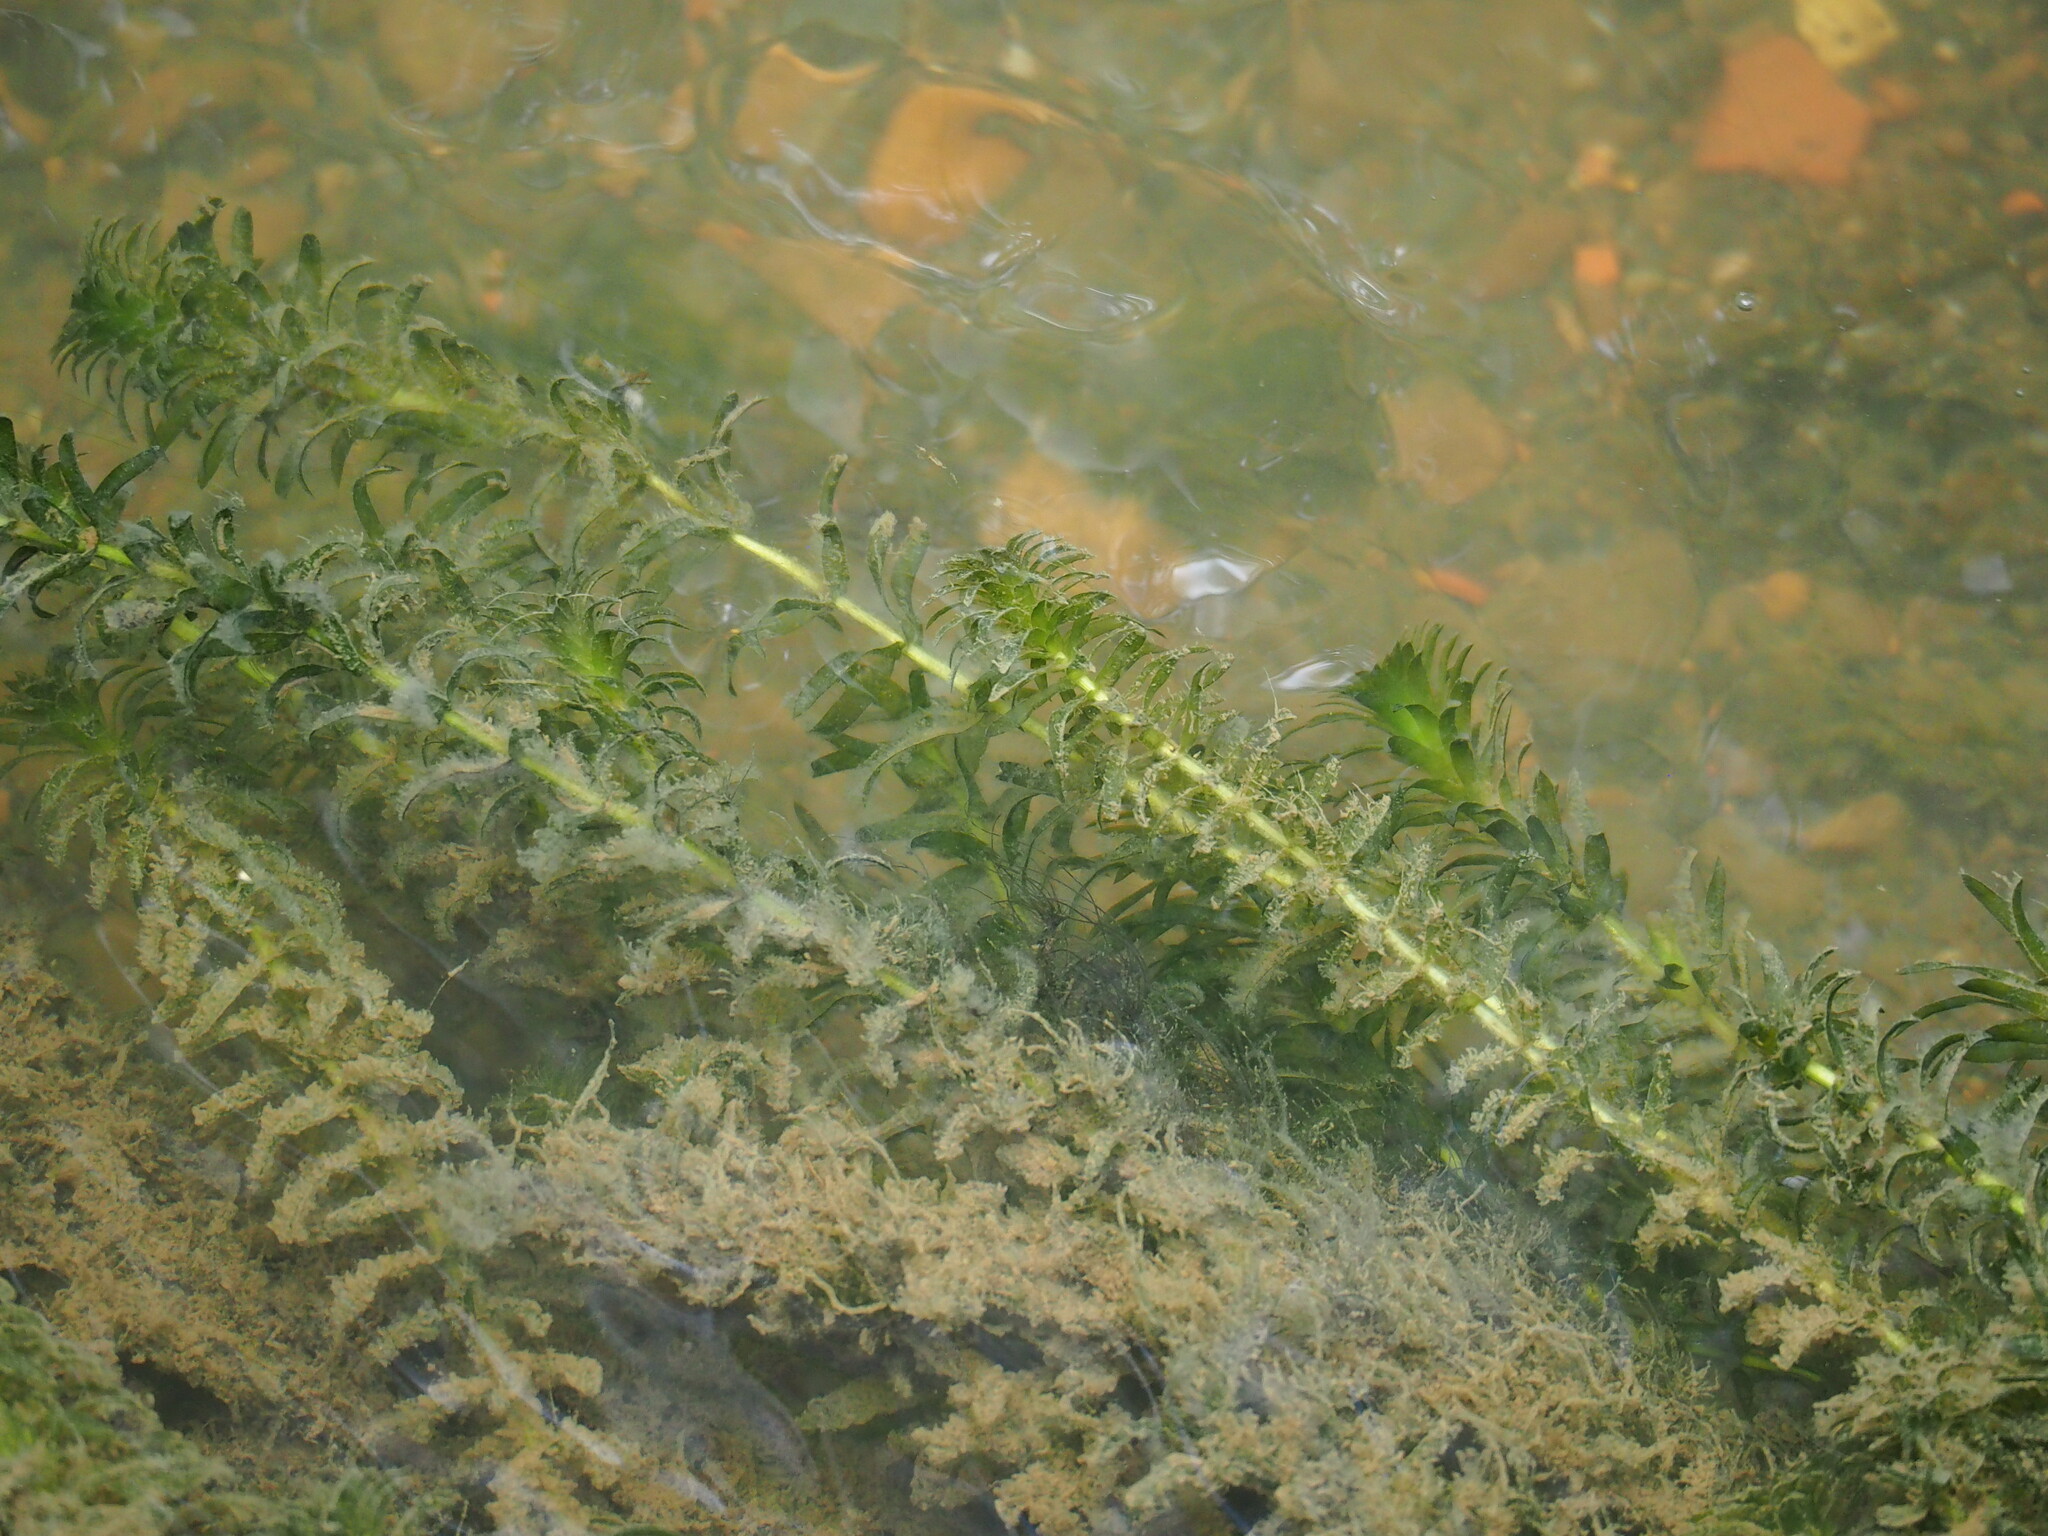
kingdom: Plantae
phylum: Tracheophyta
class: Liliopsida
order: Alismatales
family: Hydrocharitaceae
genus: Elodea
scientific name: Elodea densa
